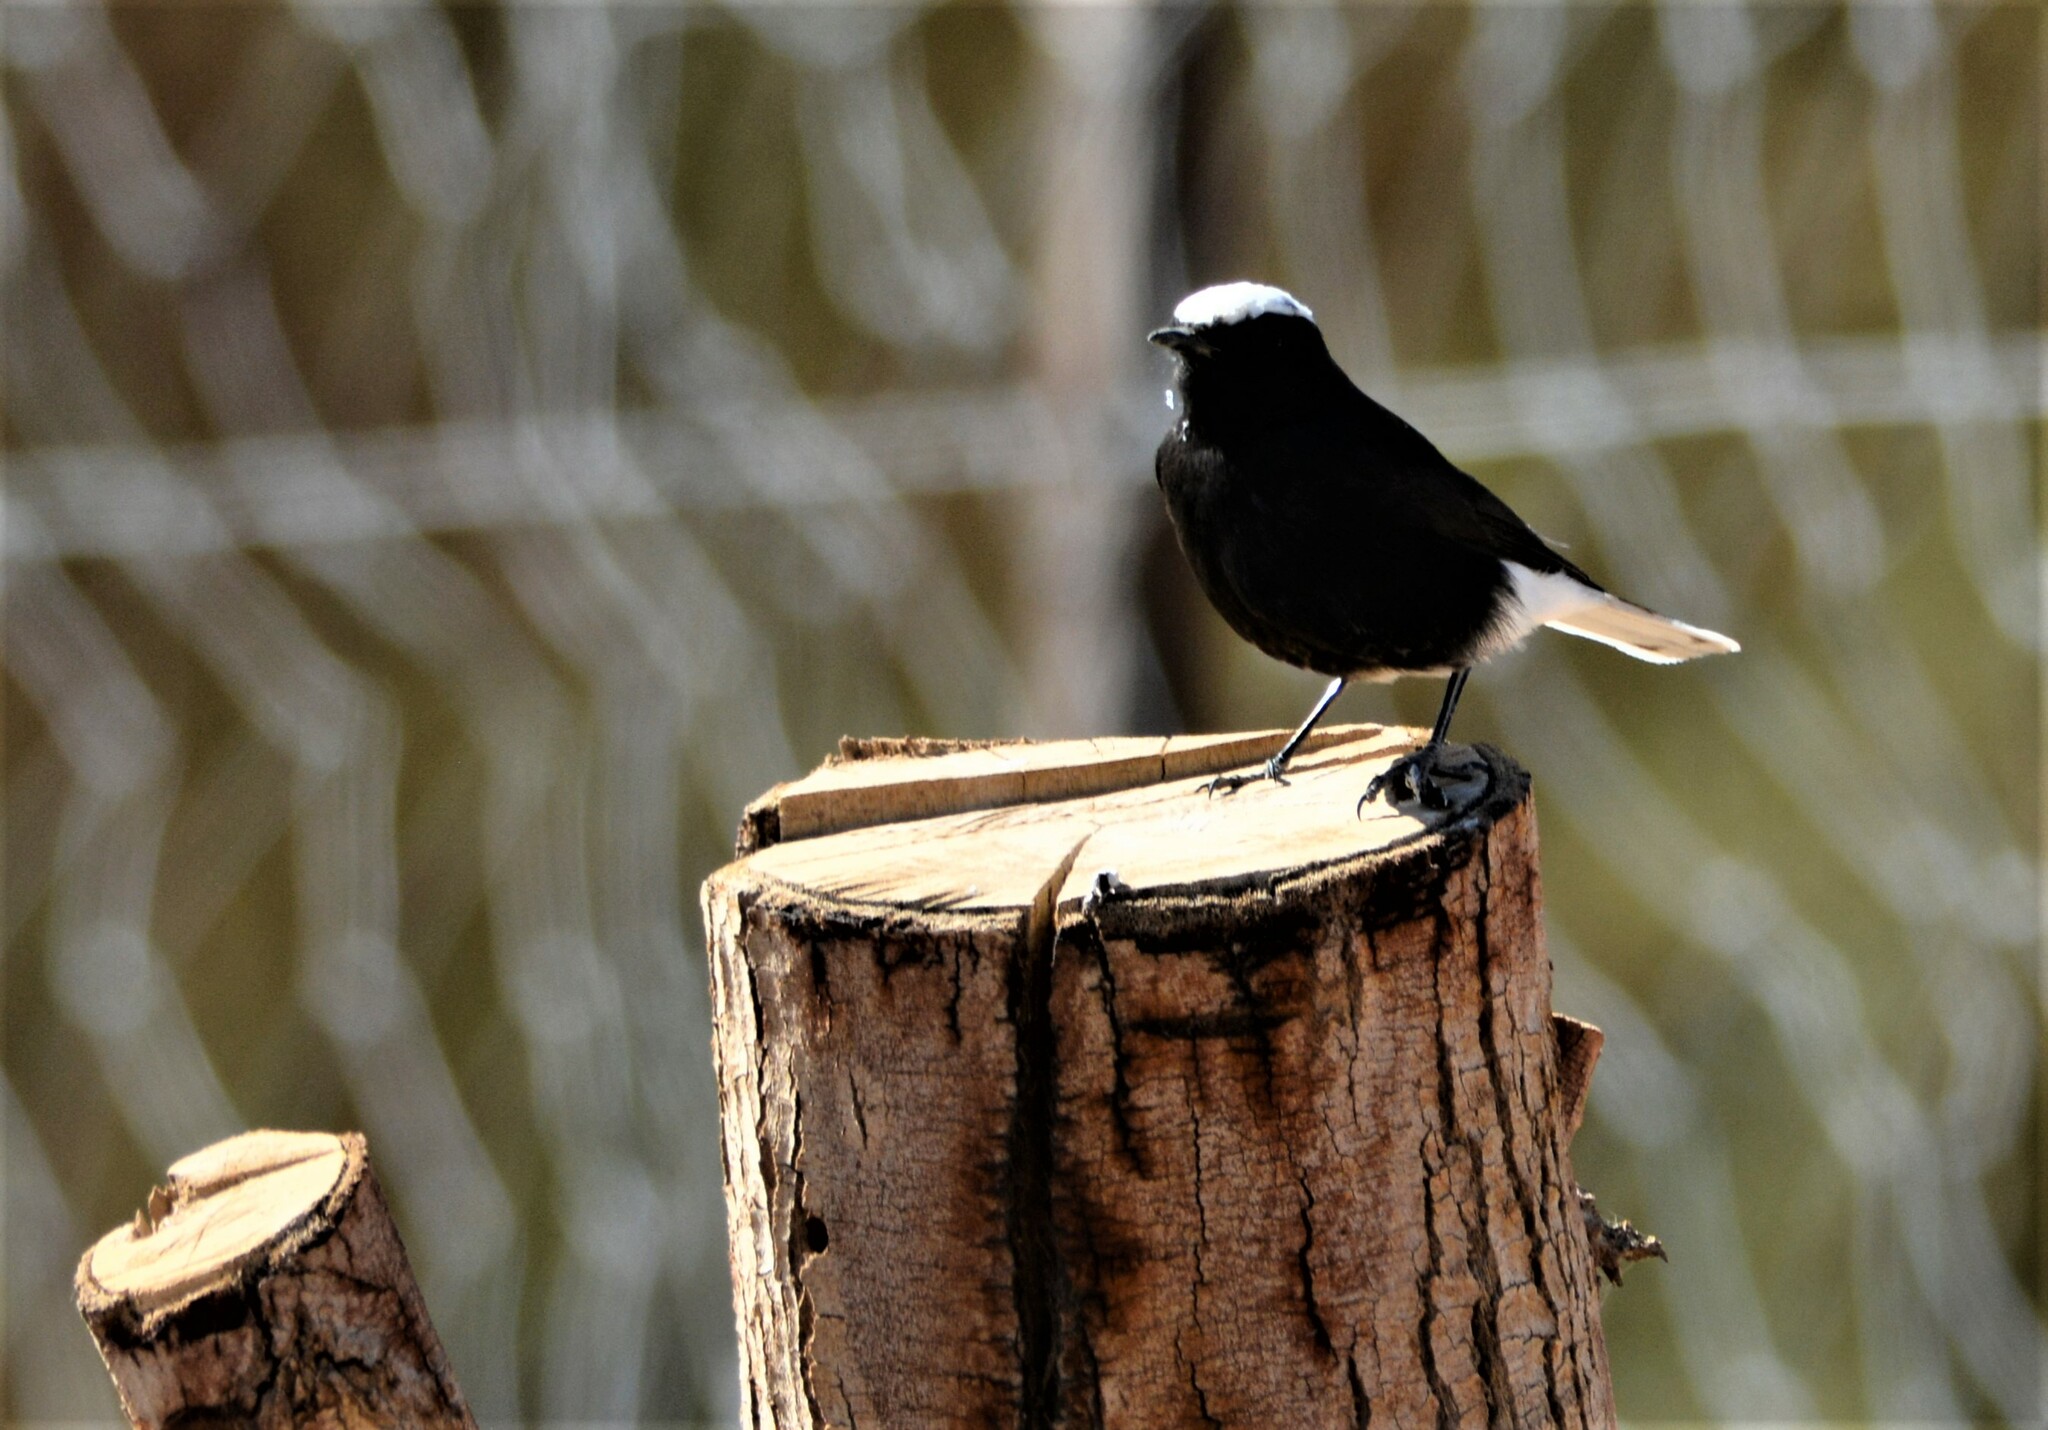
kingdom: Animalia
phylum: Chordata
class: Aves
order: Passeriformes
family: Muscicapidae
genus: Oenanthe
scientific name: Oenanthe leucopyga
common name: White-crowned wheatear
